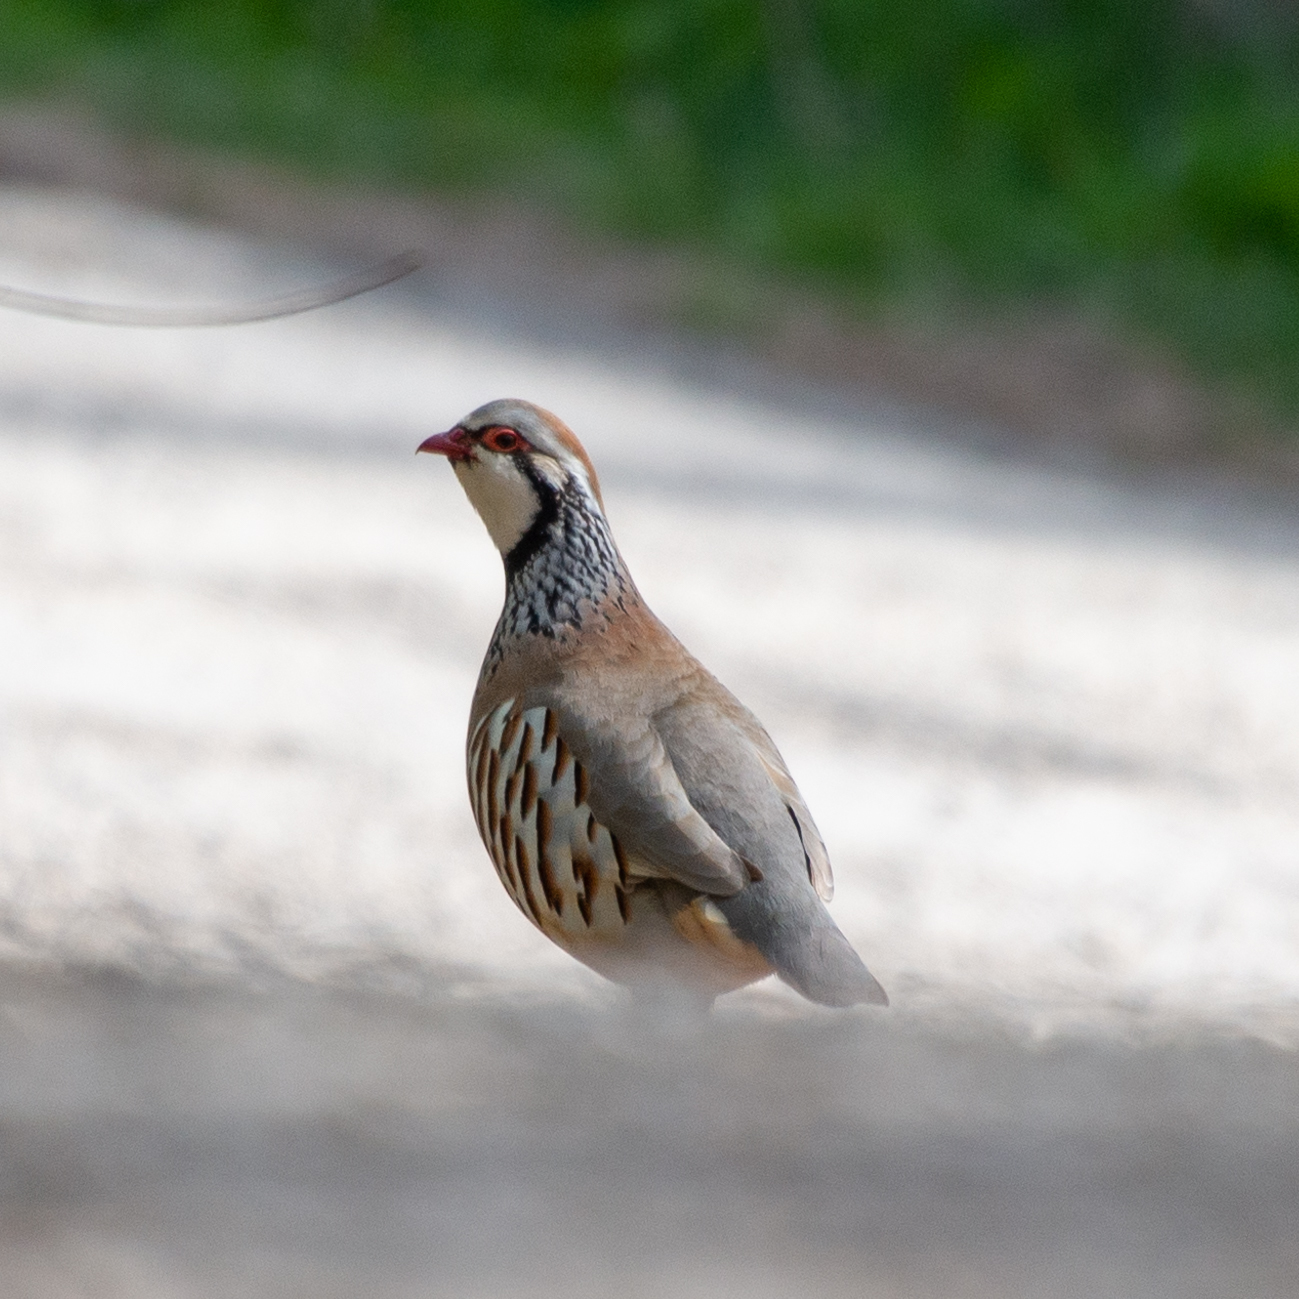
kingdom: Animalia
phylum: Chordata
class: Aves
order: Galliformes
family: Phasianidae
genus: Alectoris
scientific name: Alectoris rufa
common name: Red-legged partridge
